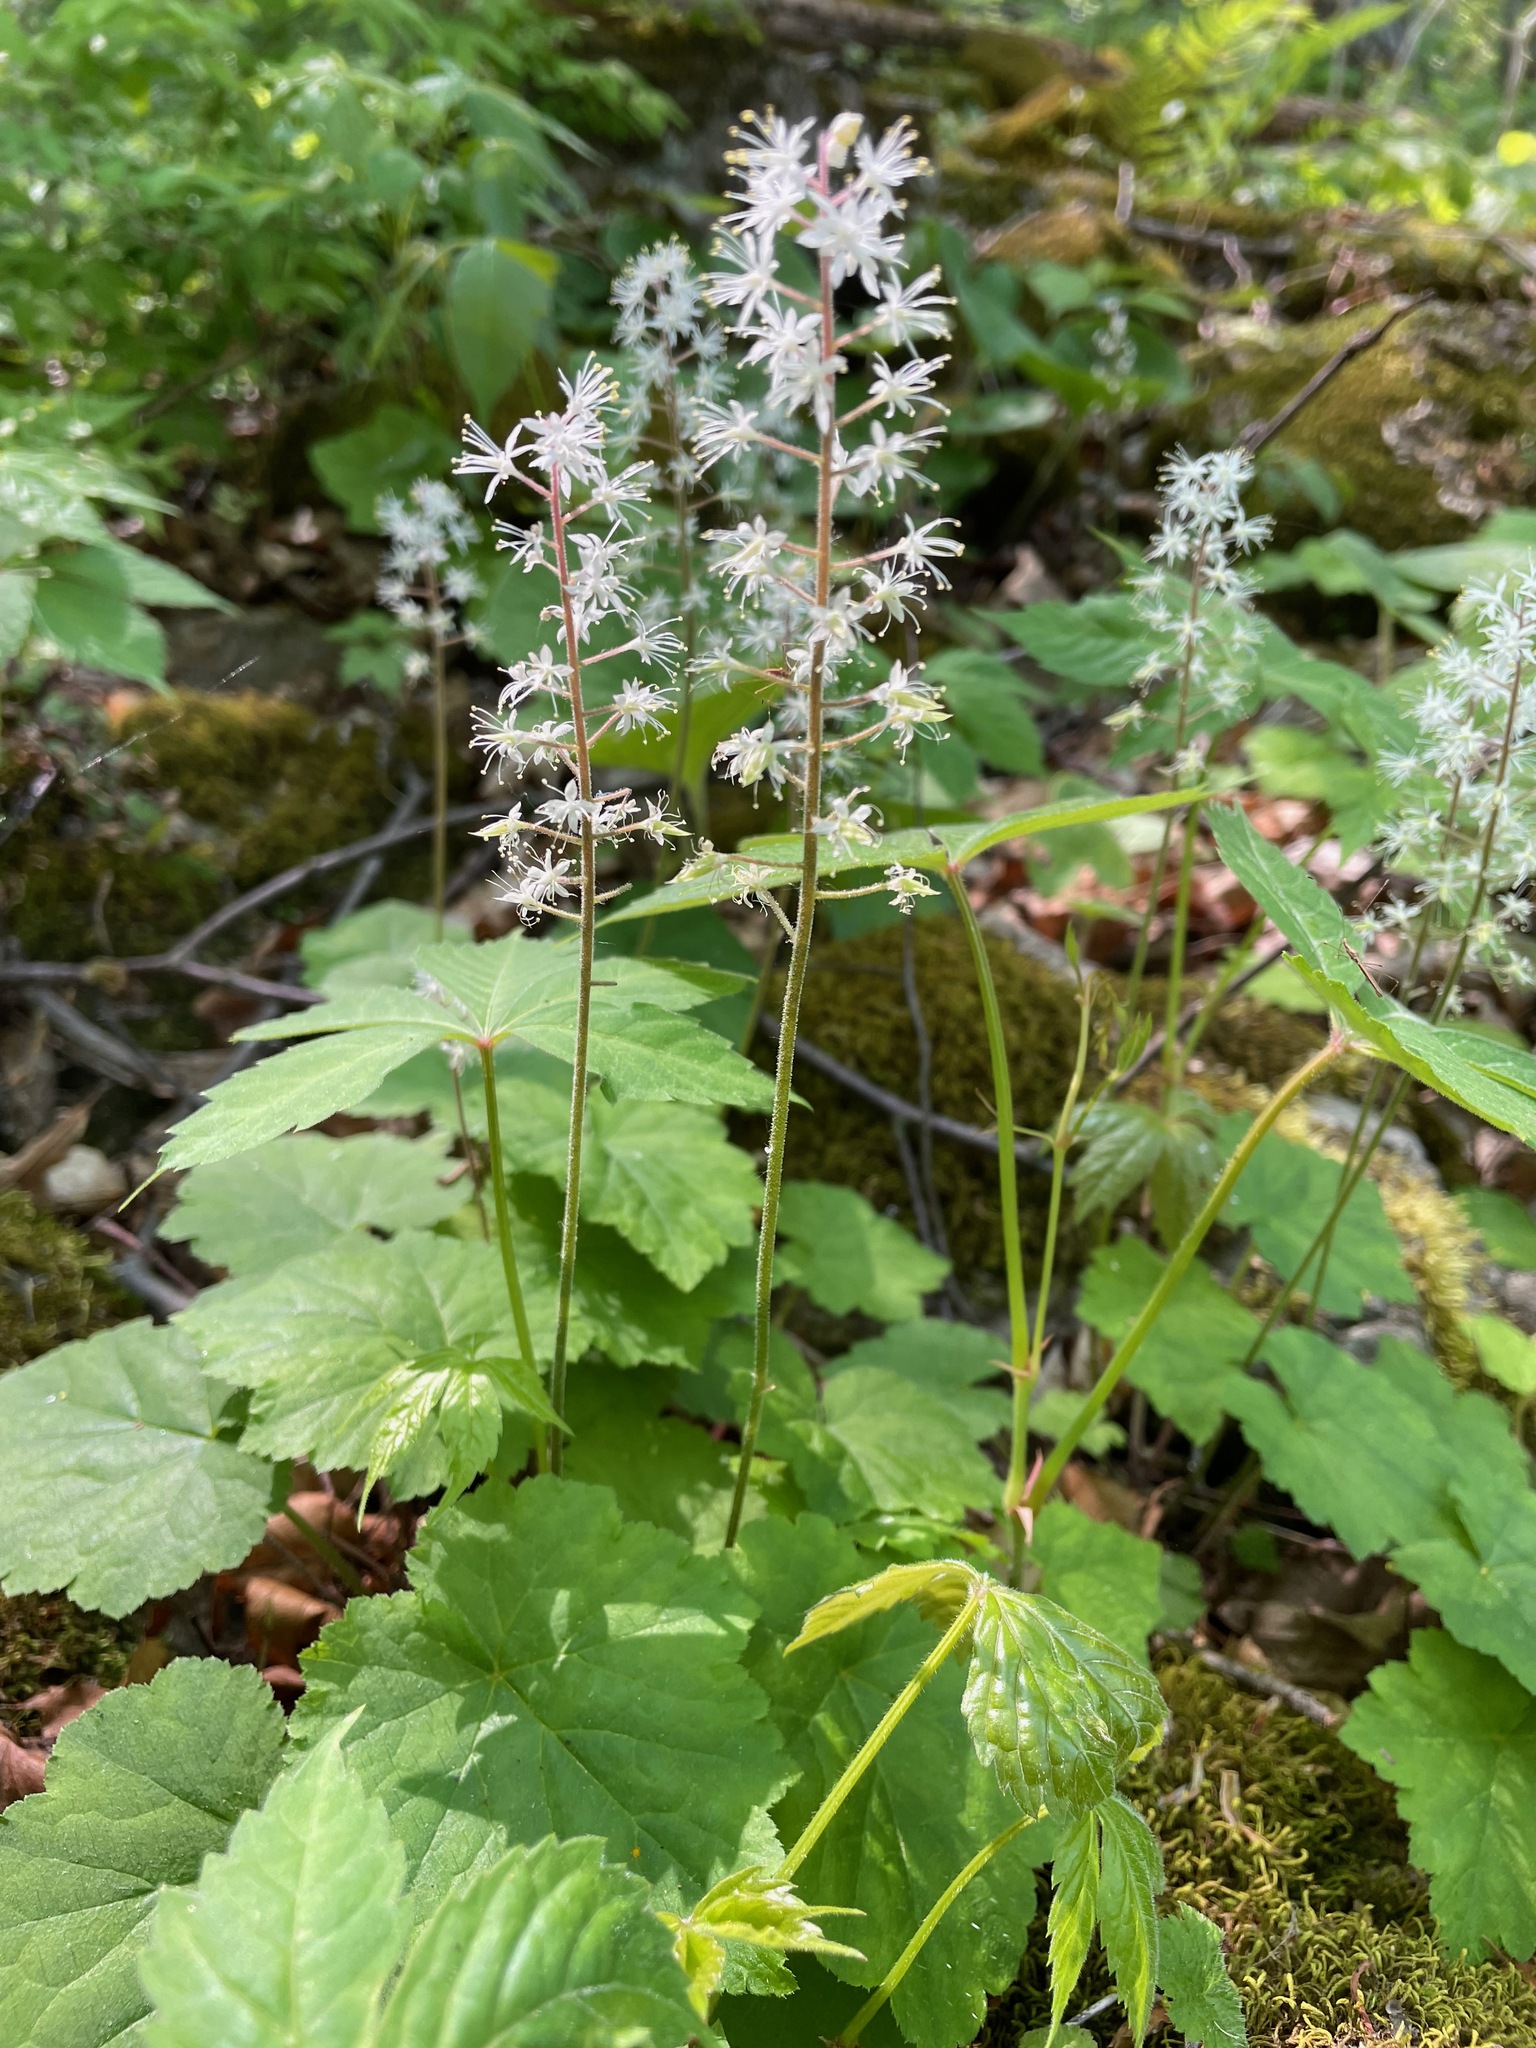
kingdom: Plantae
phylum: Tracheophyta
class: Magnoliopsida
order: Saxifragales
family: Saxifragaceae
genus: Tiarella
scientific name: Tiarella stolonifera
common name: Stoloniferous foamflower
